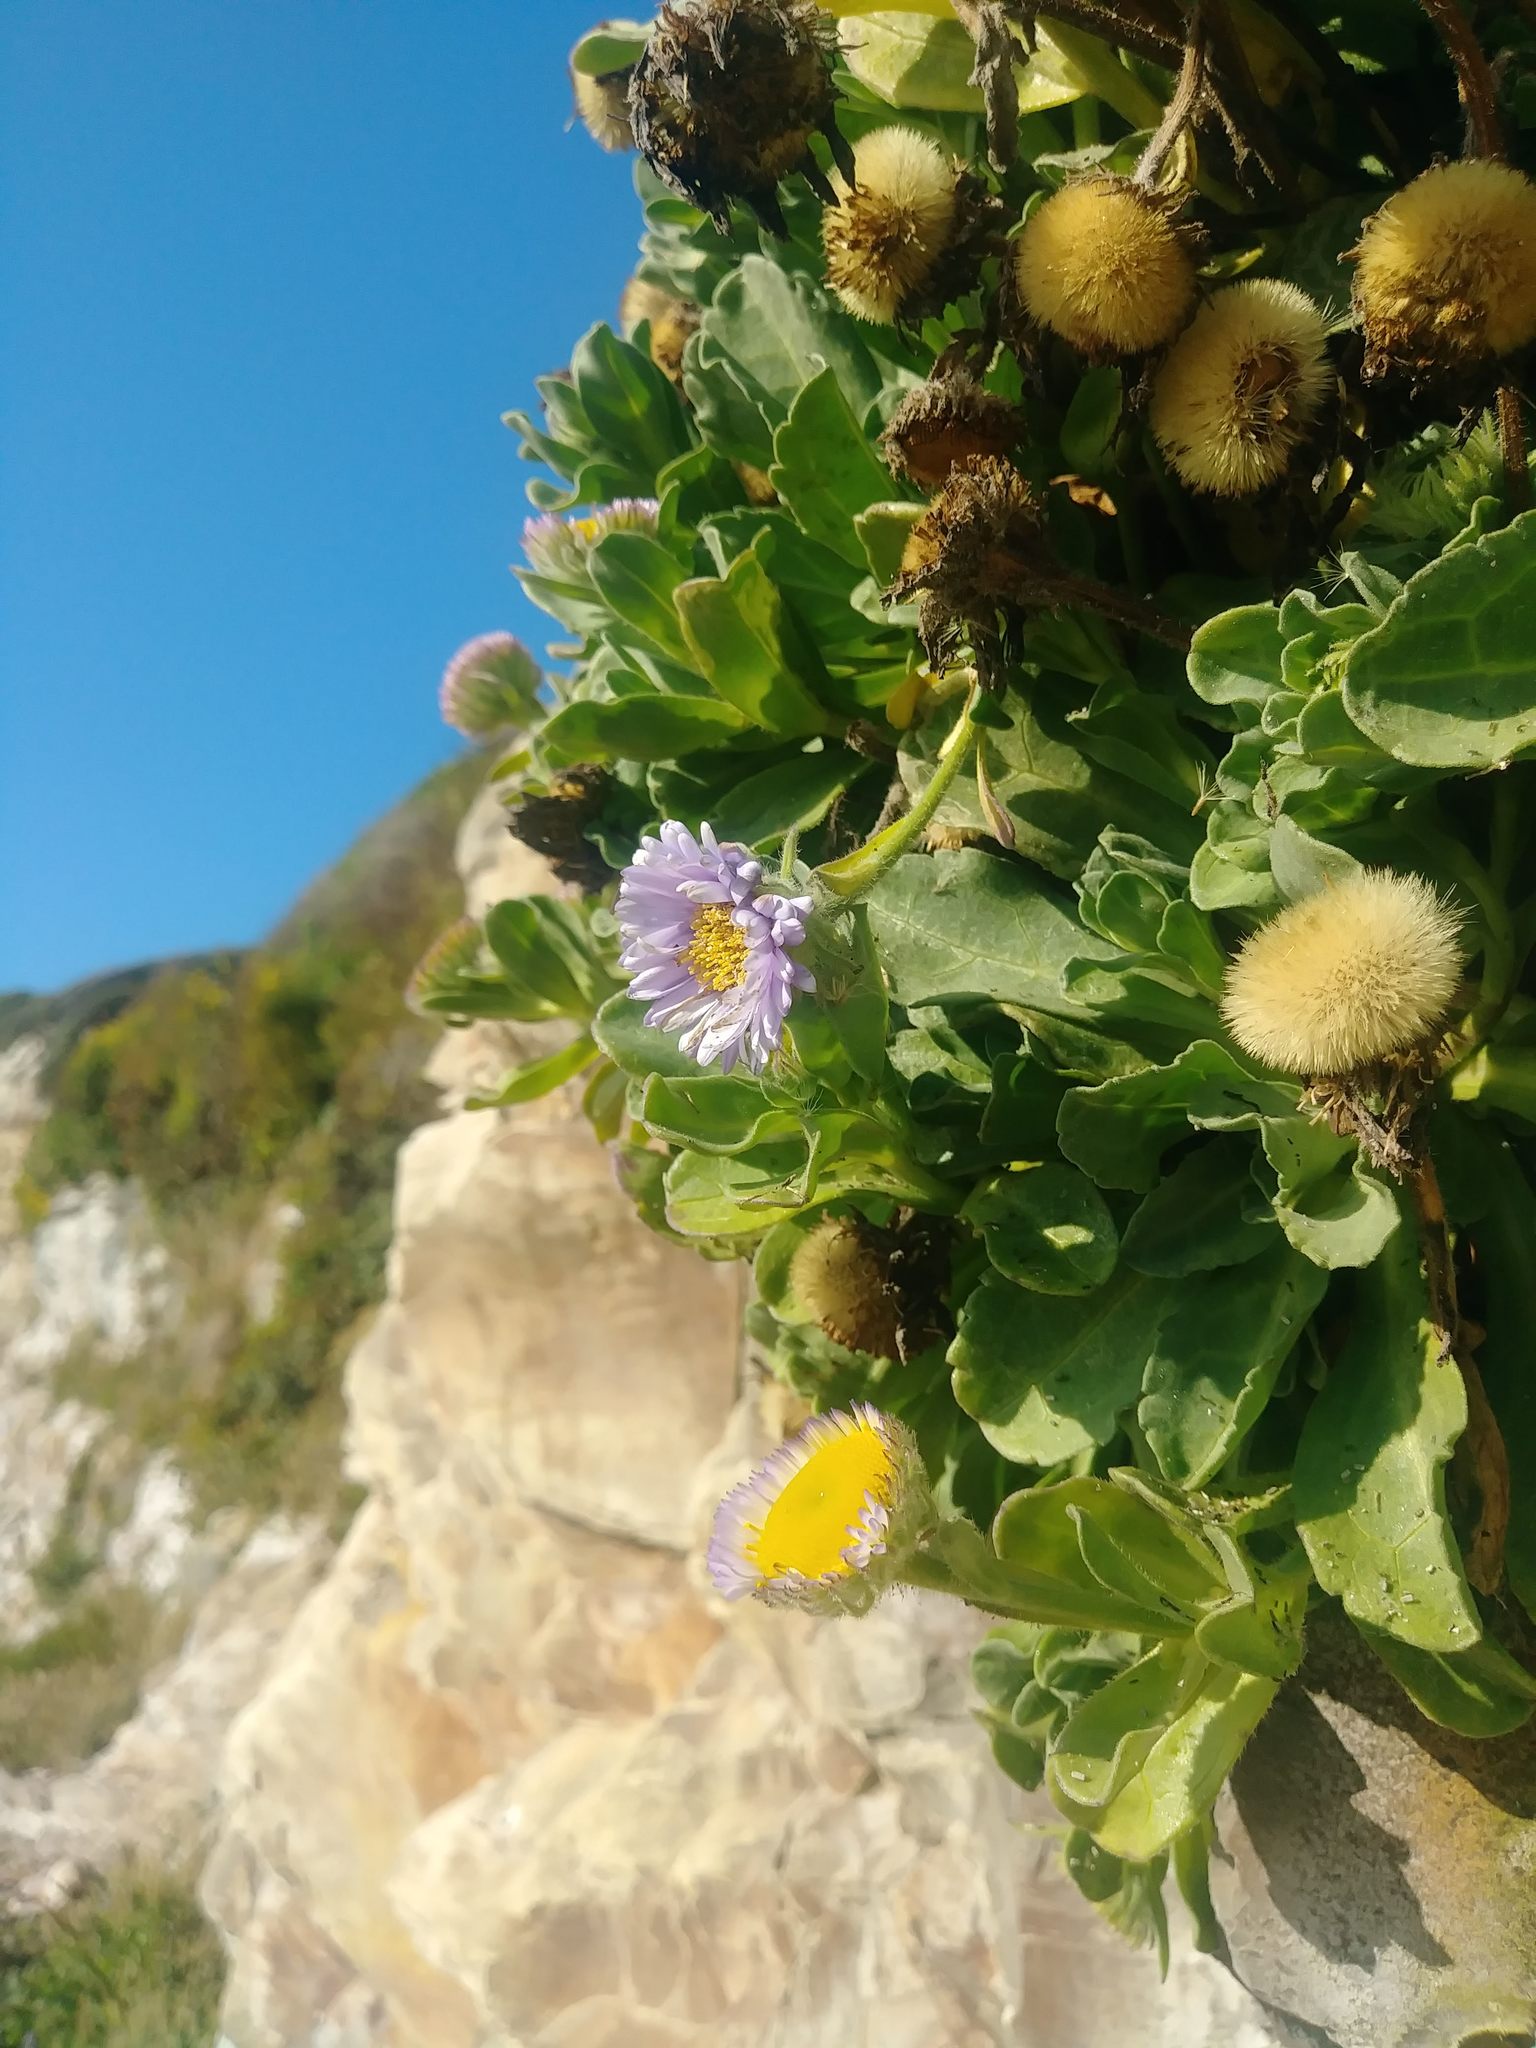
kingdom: Plantae
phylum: Tracheophyta
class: Magnoliopsida
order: Asterales
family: Asteraceae
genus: Erigeron
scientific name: Erigeron glaucus
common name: Seaside daisy
